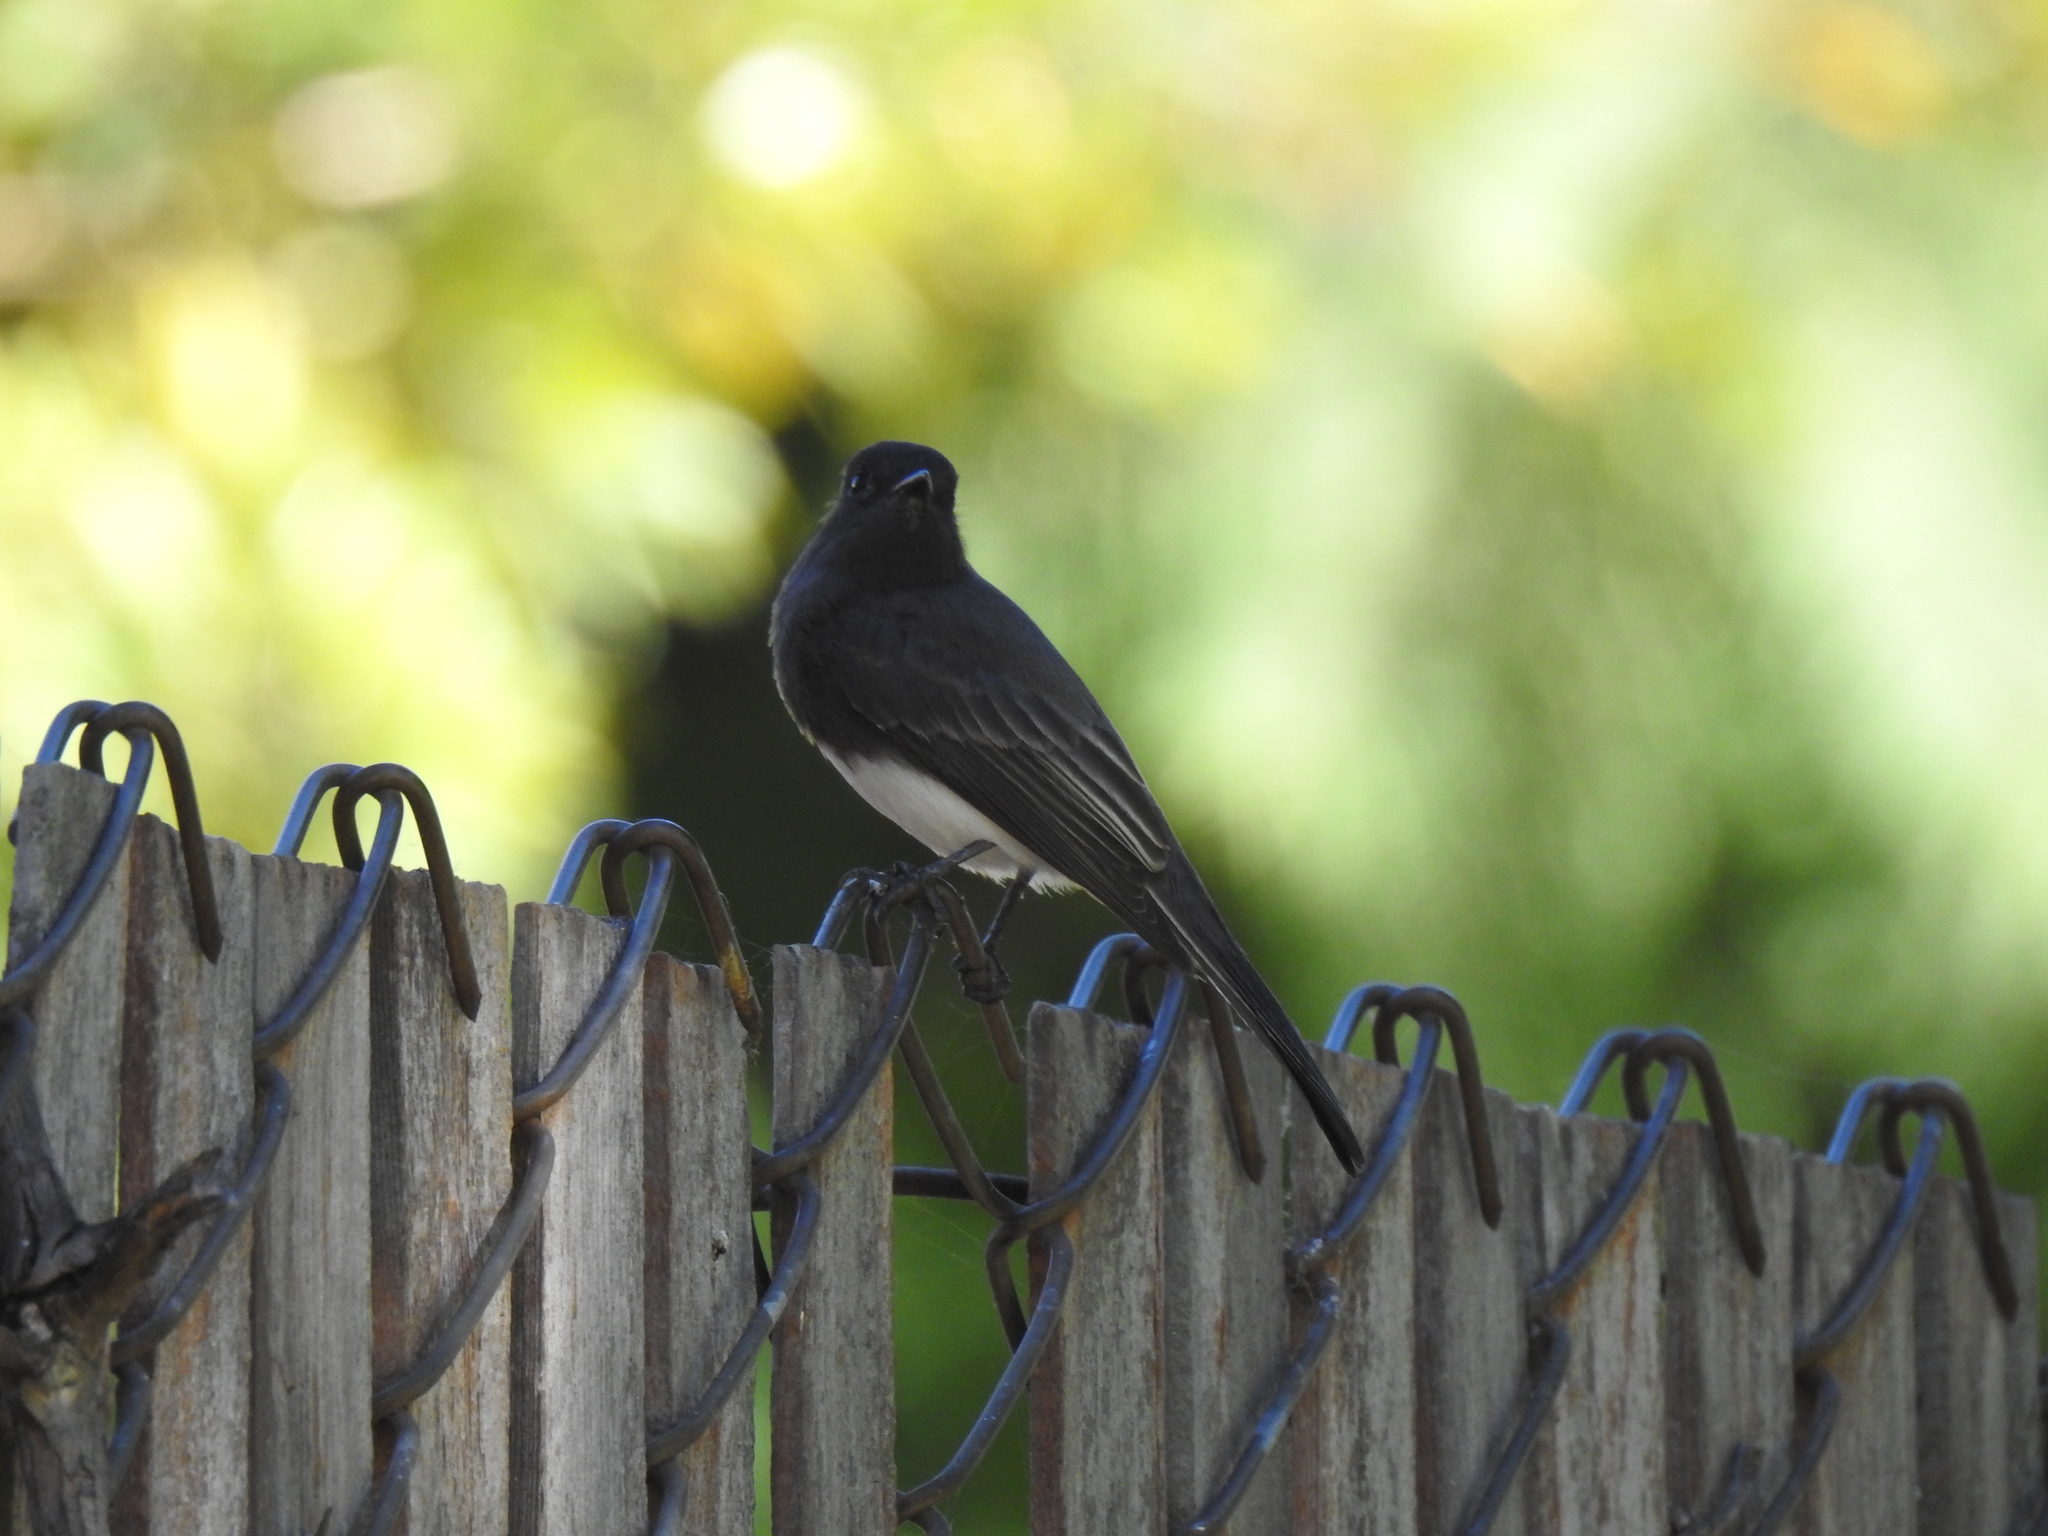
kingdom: Animalia
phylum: Chordata
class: Aves
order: Passeriformes
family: Tyrannidae
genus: Sayornis
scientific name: Sayornis nigricans
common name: Black phoebe
